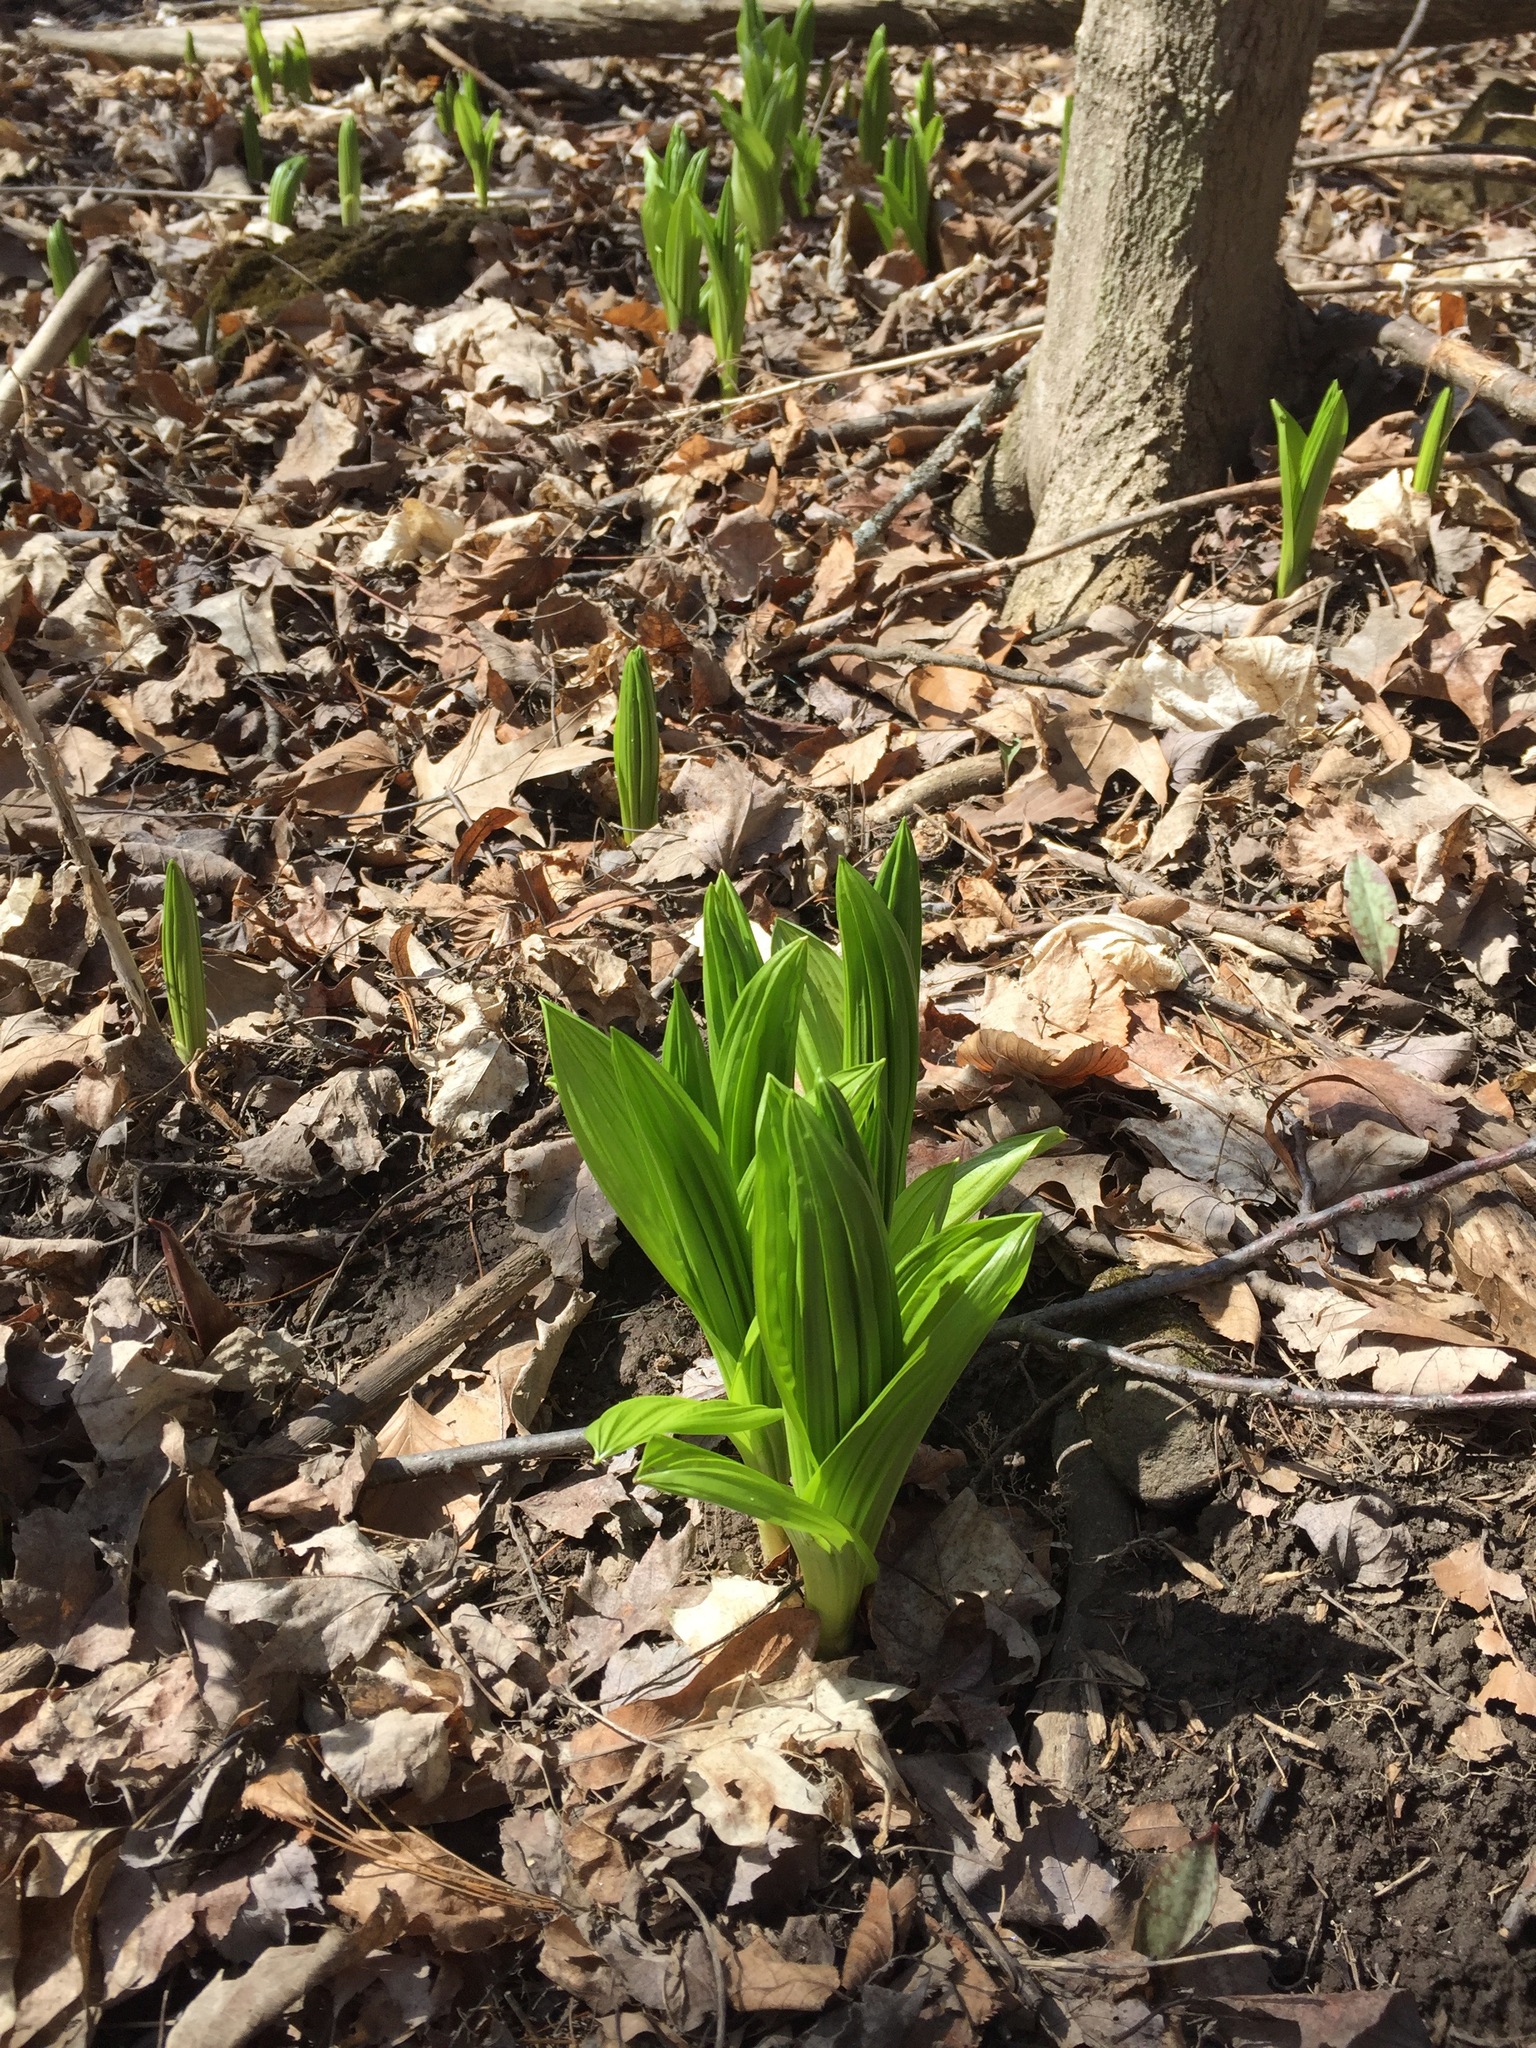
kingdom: Plantae
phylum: Tracheophyta
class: Liliopsida
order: Liliales
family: Melanthiaceae
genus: Veratrum
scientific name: Veratrum viride
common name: American false hellebore
